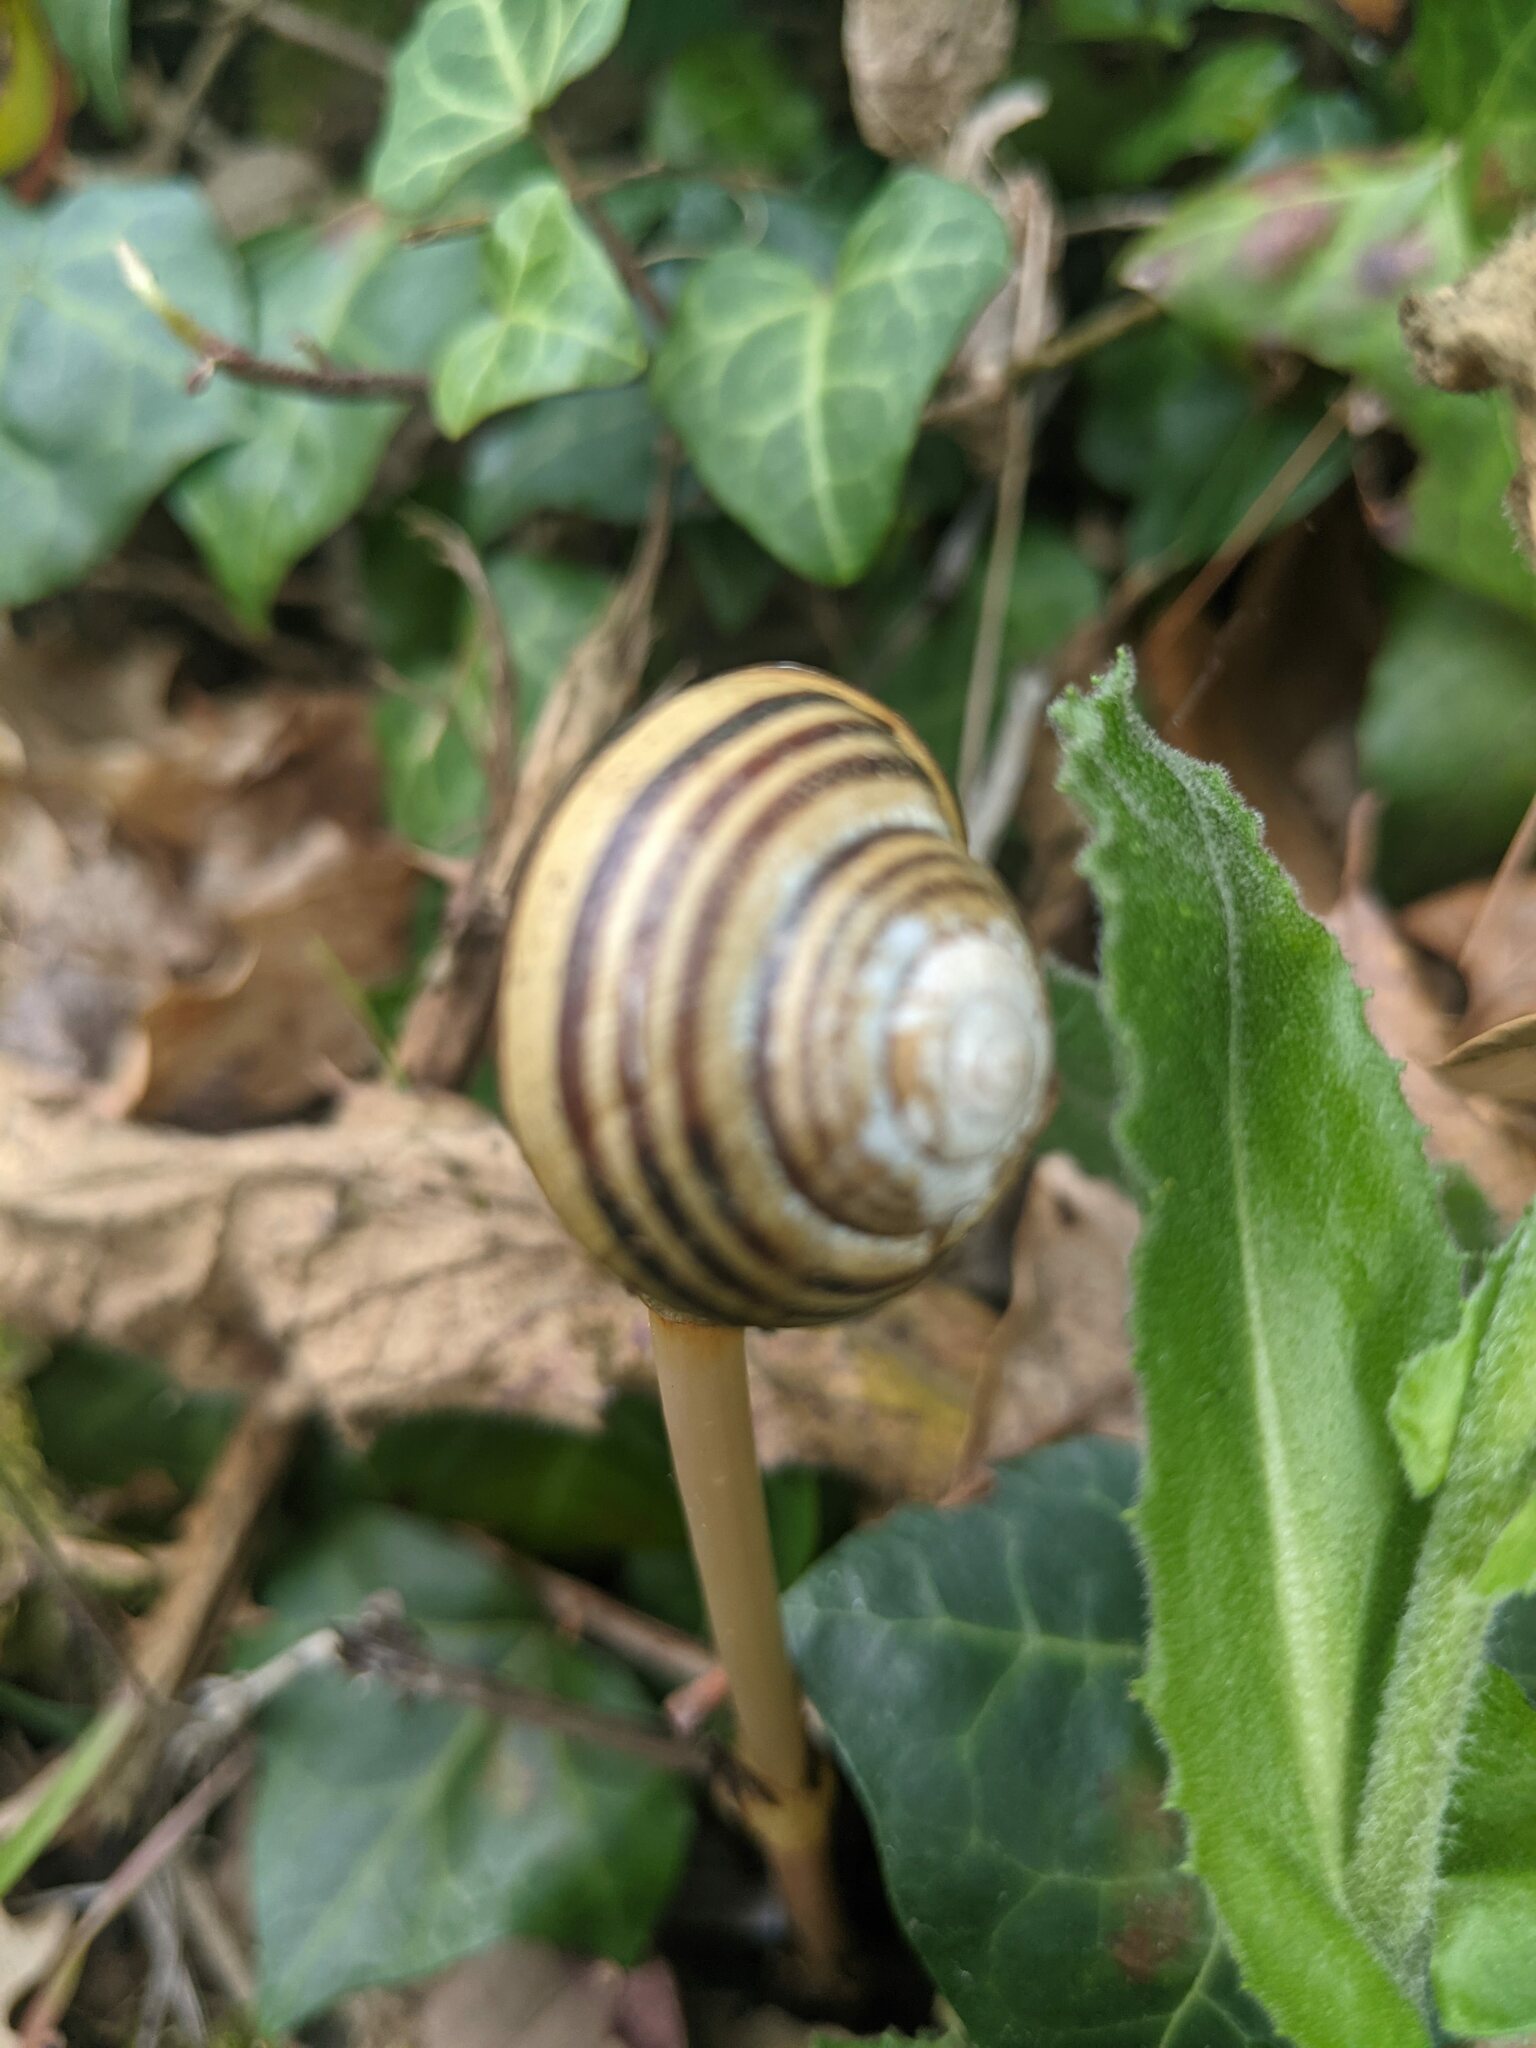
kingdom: Animalia
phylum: Mollusca
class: Gastropoda
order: Stylommatophora
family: Helicidae
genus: Cepaea
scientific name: Cepaea nemoralis
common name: Grovesnail
